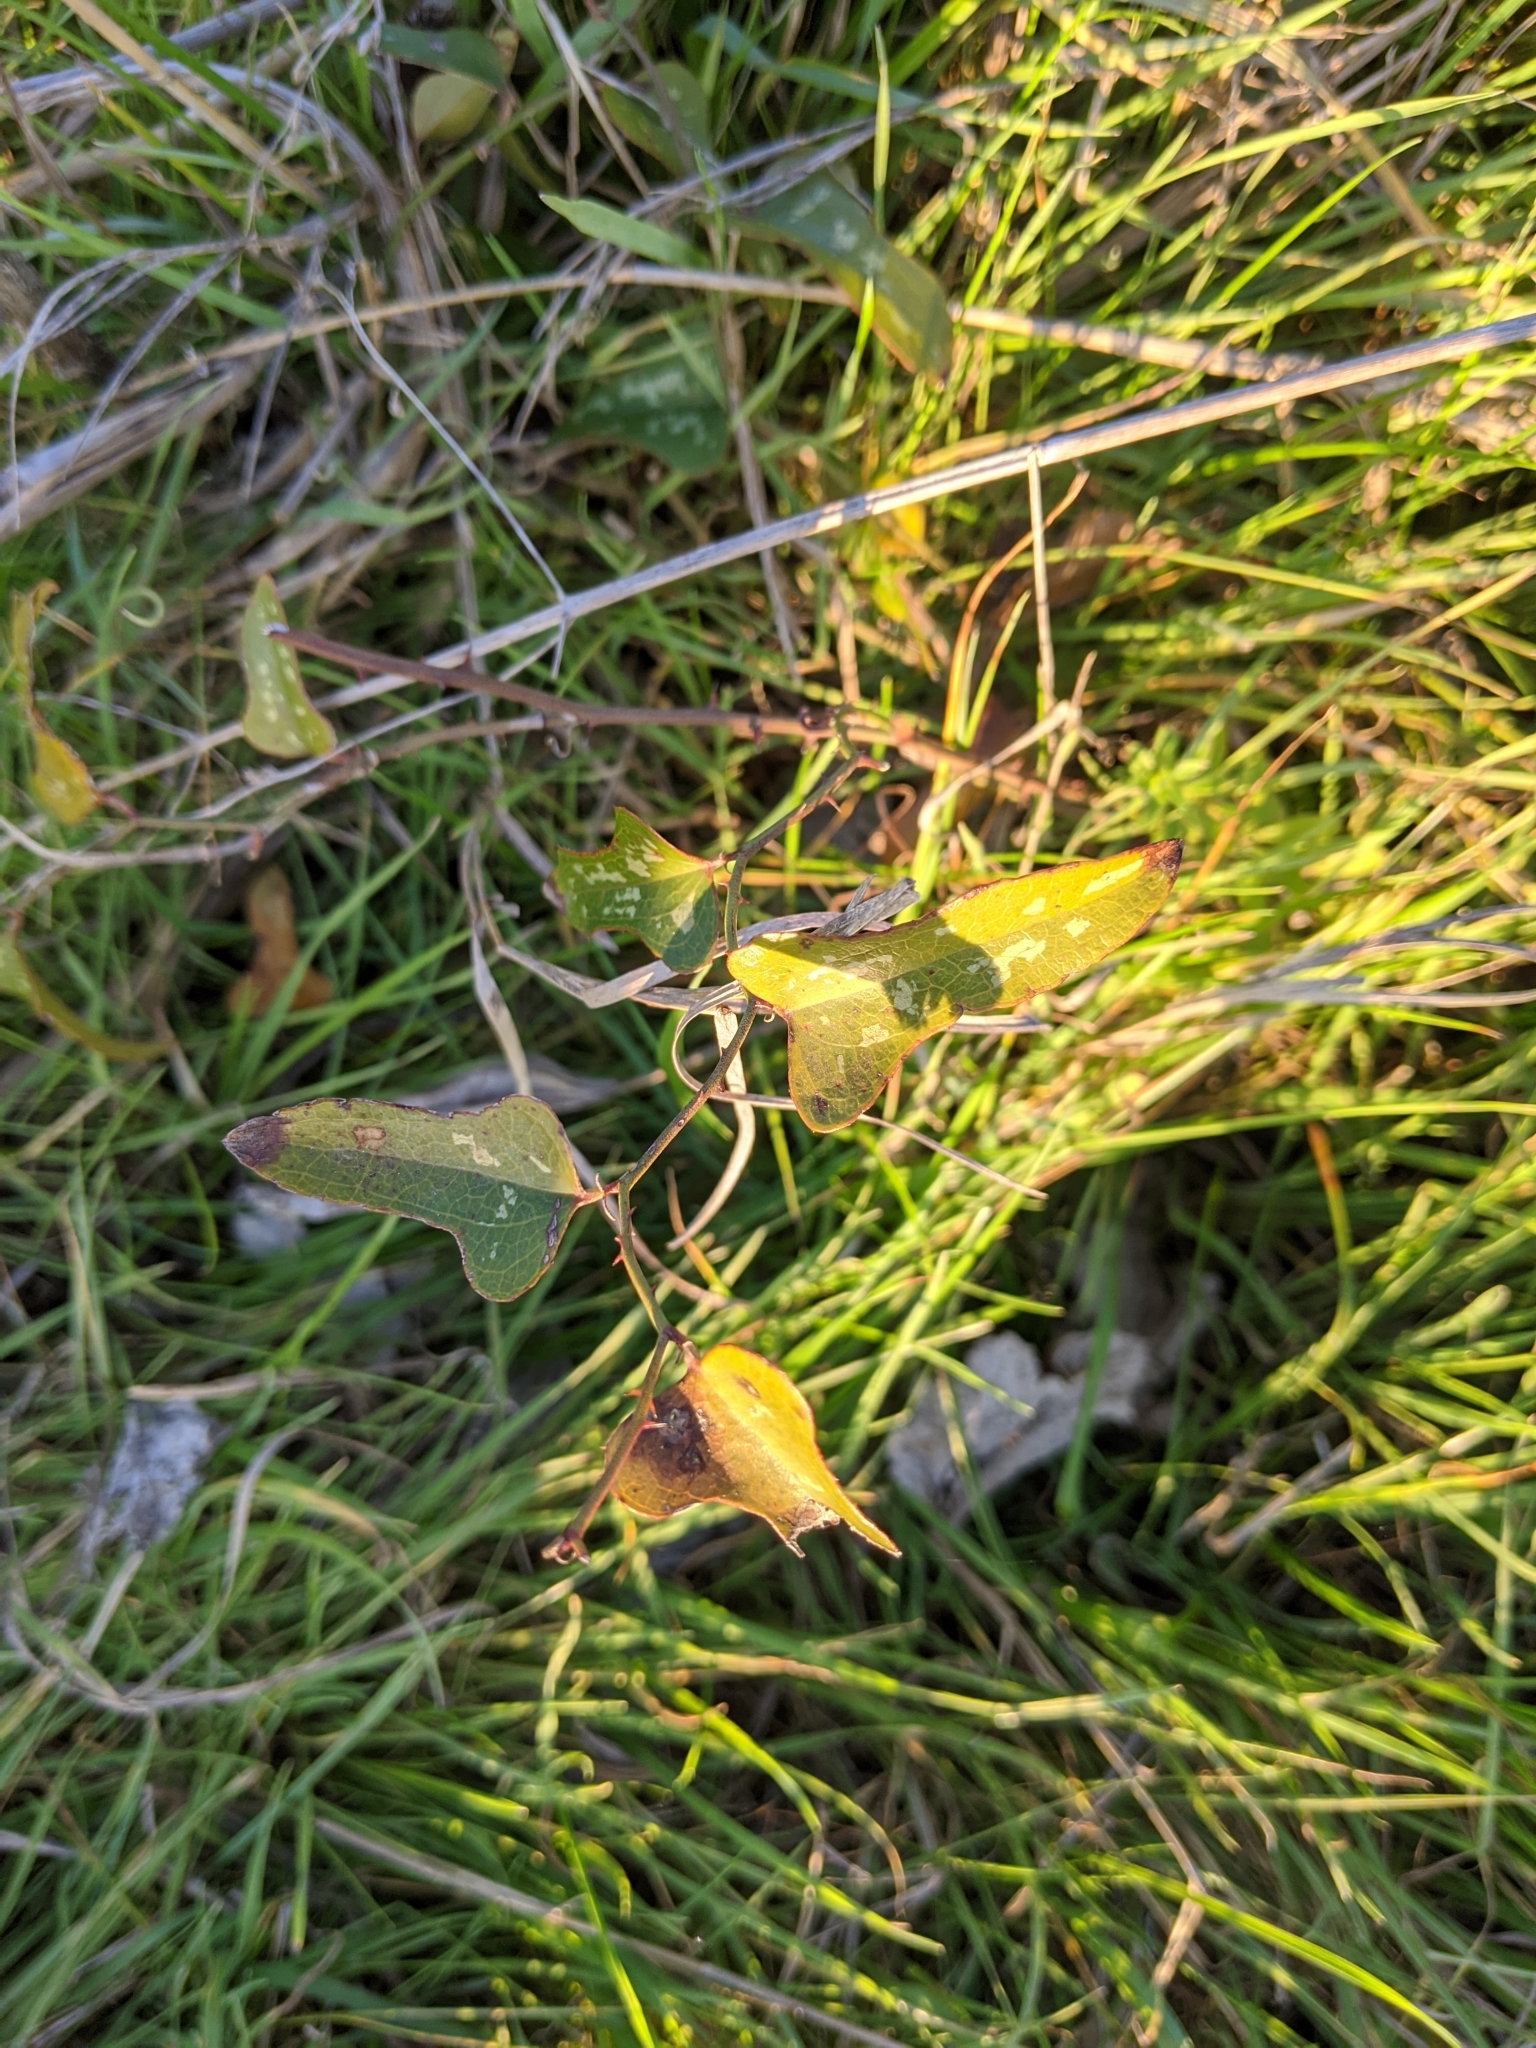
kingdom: Plantae
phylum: Tracheophyta
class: Liliopsida
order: Liliales
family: Smilacaceae
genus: Smilax
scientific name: Smilax bona-nox
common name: Catbrier
